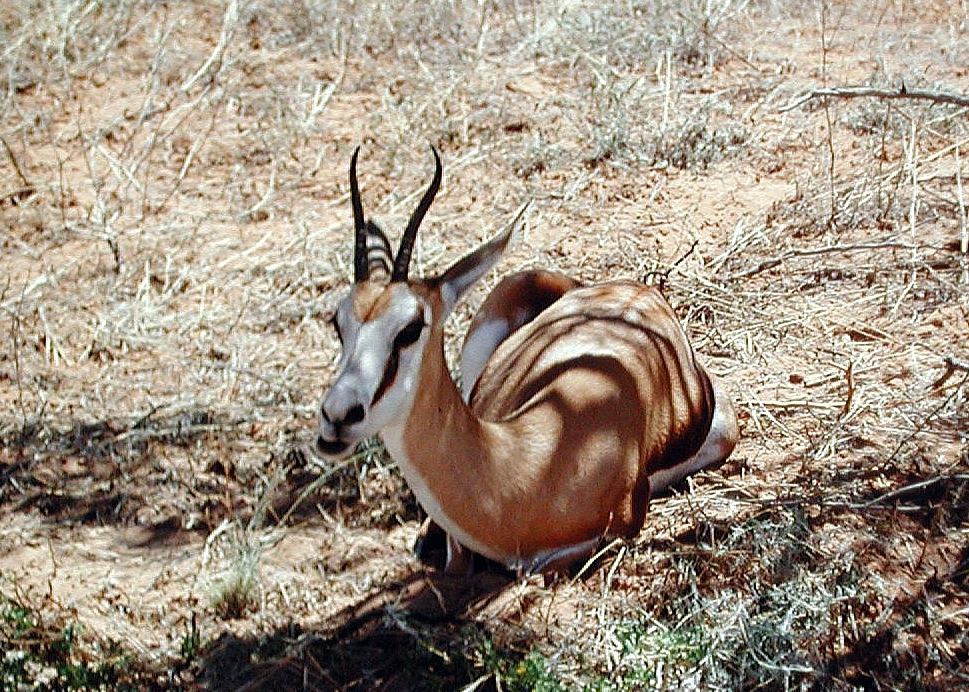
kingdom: Animalia
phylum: Chordata
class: Mammalia
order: Artiodactyla
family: Bovidae
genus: Antidorcas
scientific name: Antidorcas marsupialis
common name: Springbok
